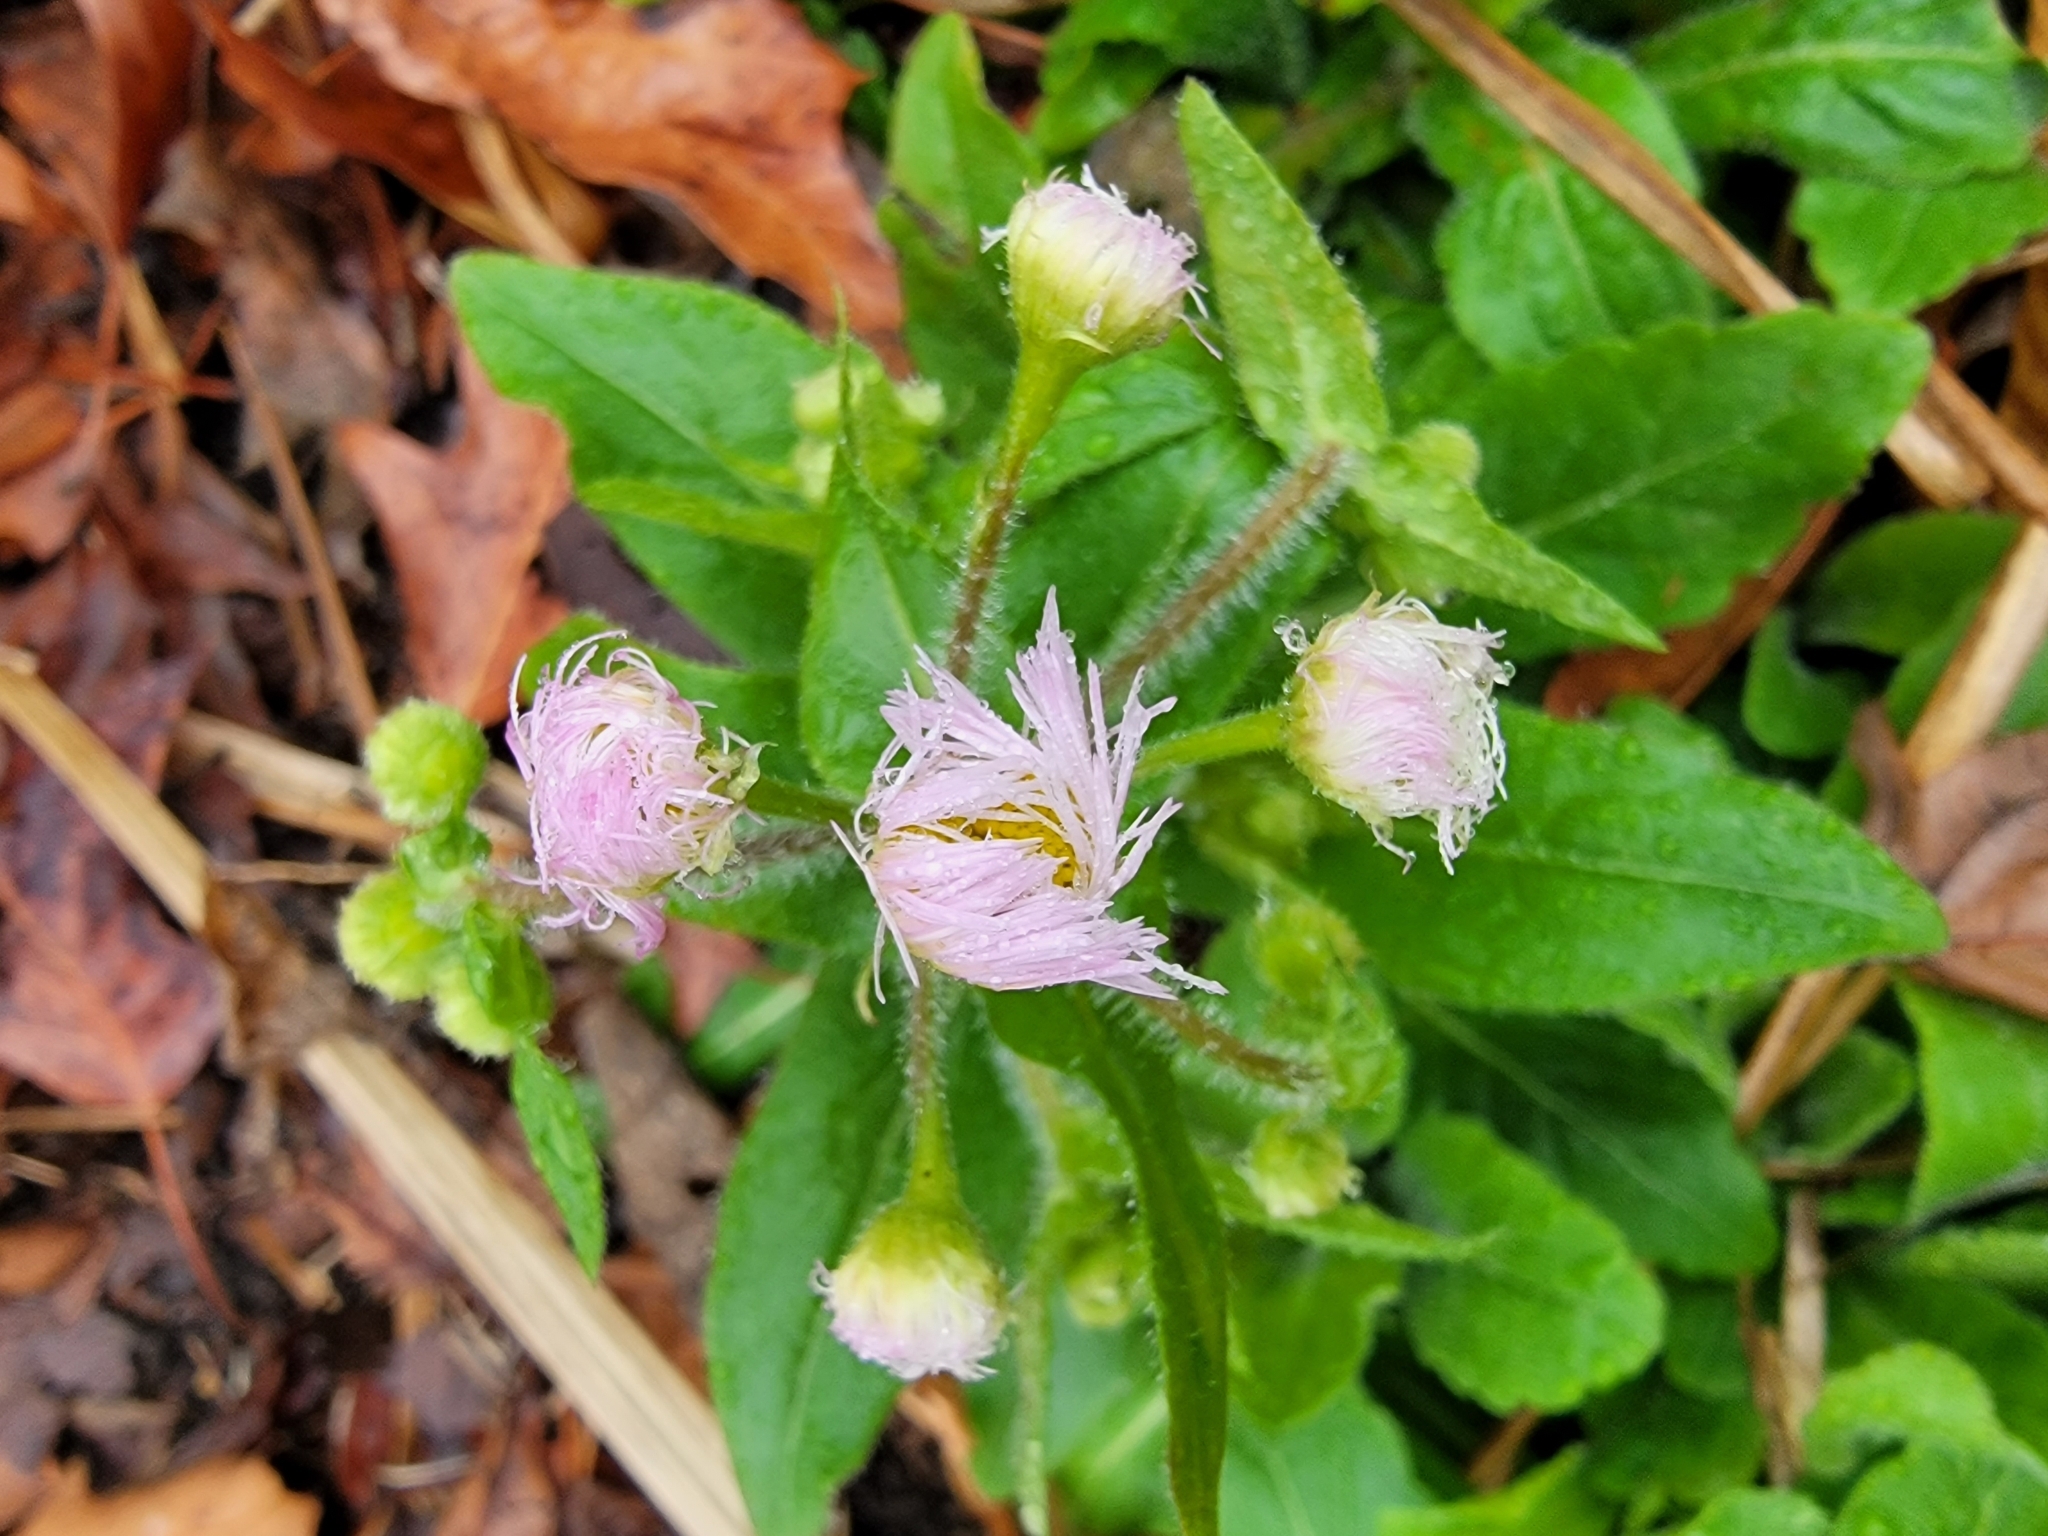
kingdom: Plantae
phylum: Tracheophyta
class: Magnoliopsida
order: Asterales
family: Asteraceae
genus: Erigeron
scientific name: Erigeron philadelphicus
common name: Robin's-plantain
